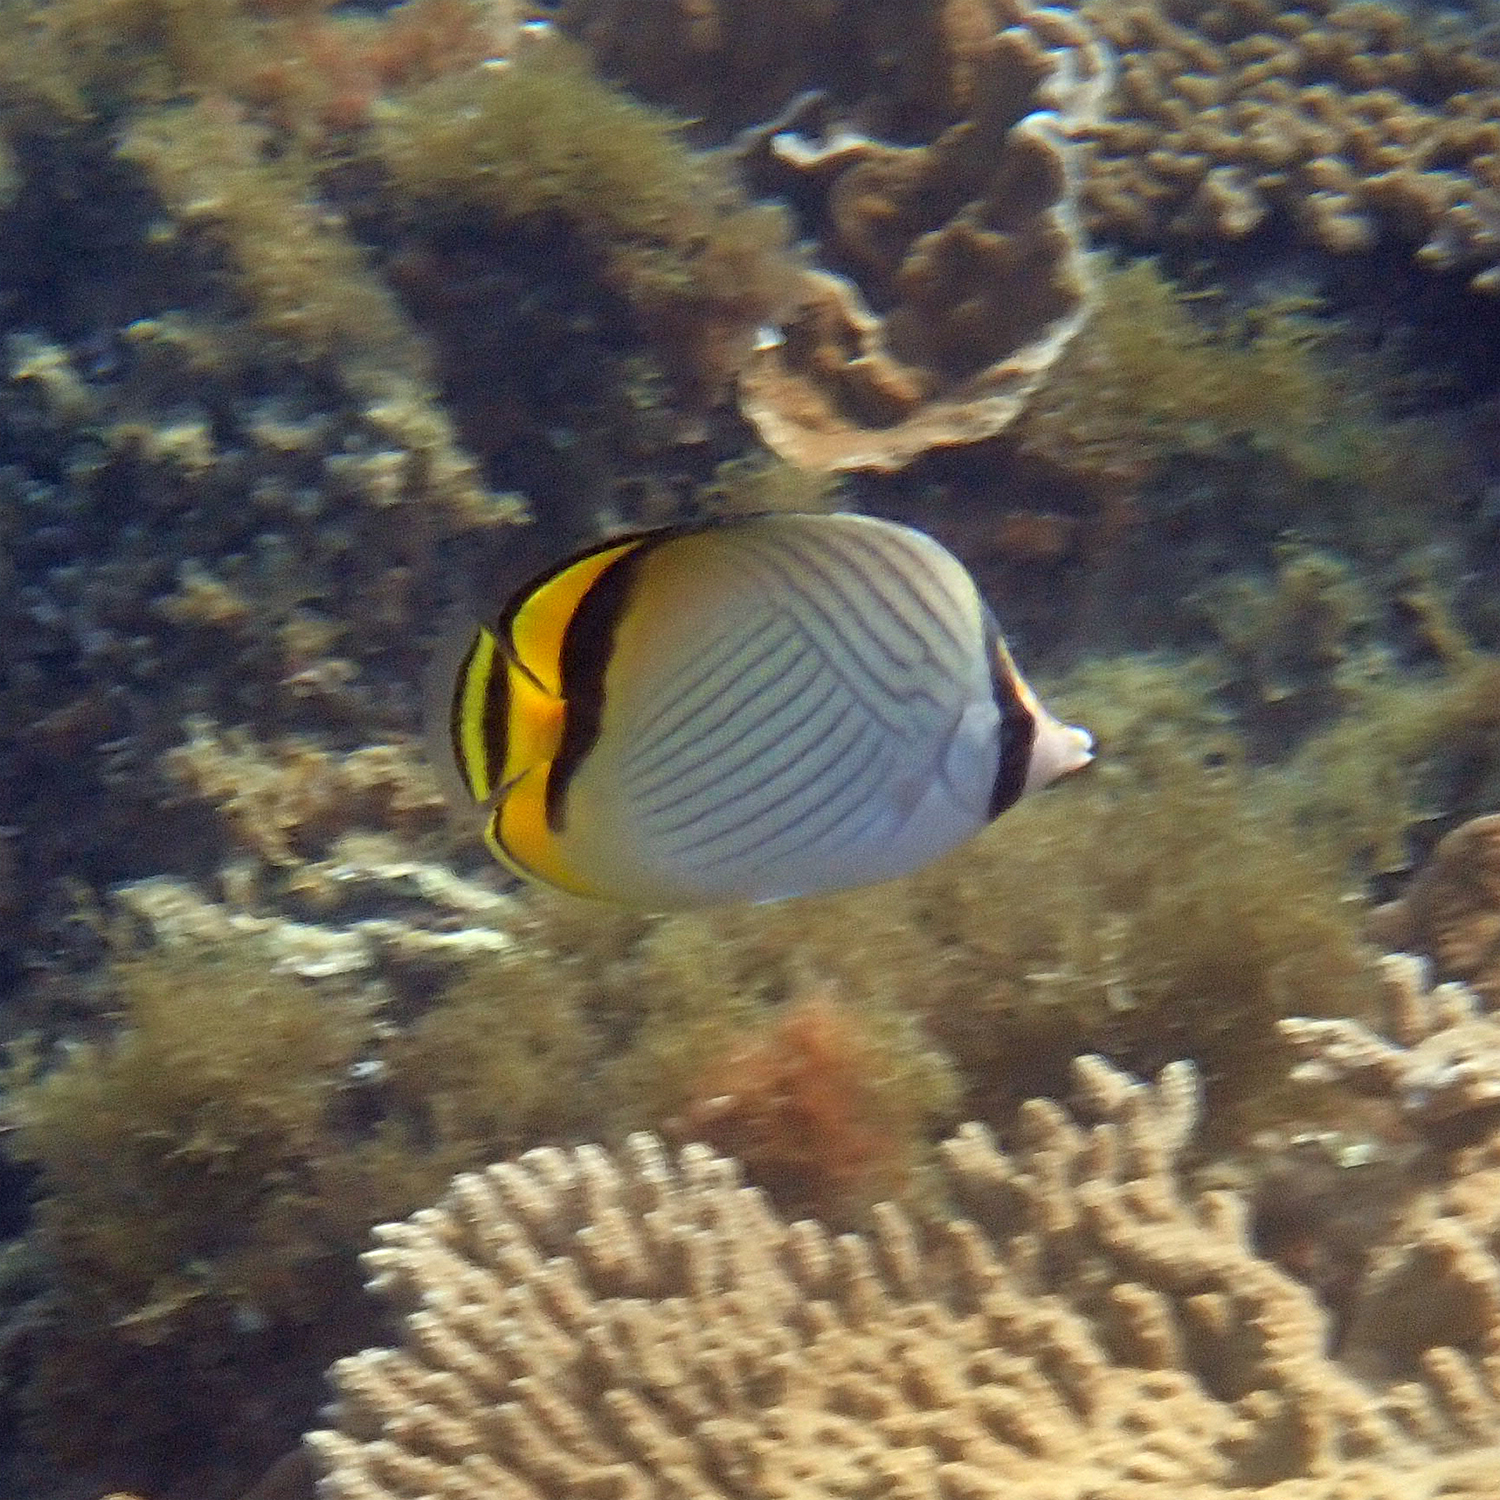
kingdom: Animalia
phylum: Chordata
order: Perciformes
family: Chaetodontidae
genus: Chaetodon
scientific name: Chaetodon vagabundus
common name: Vagabond butterflyfish
